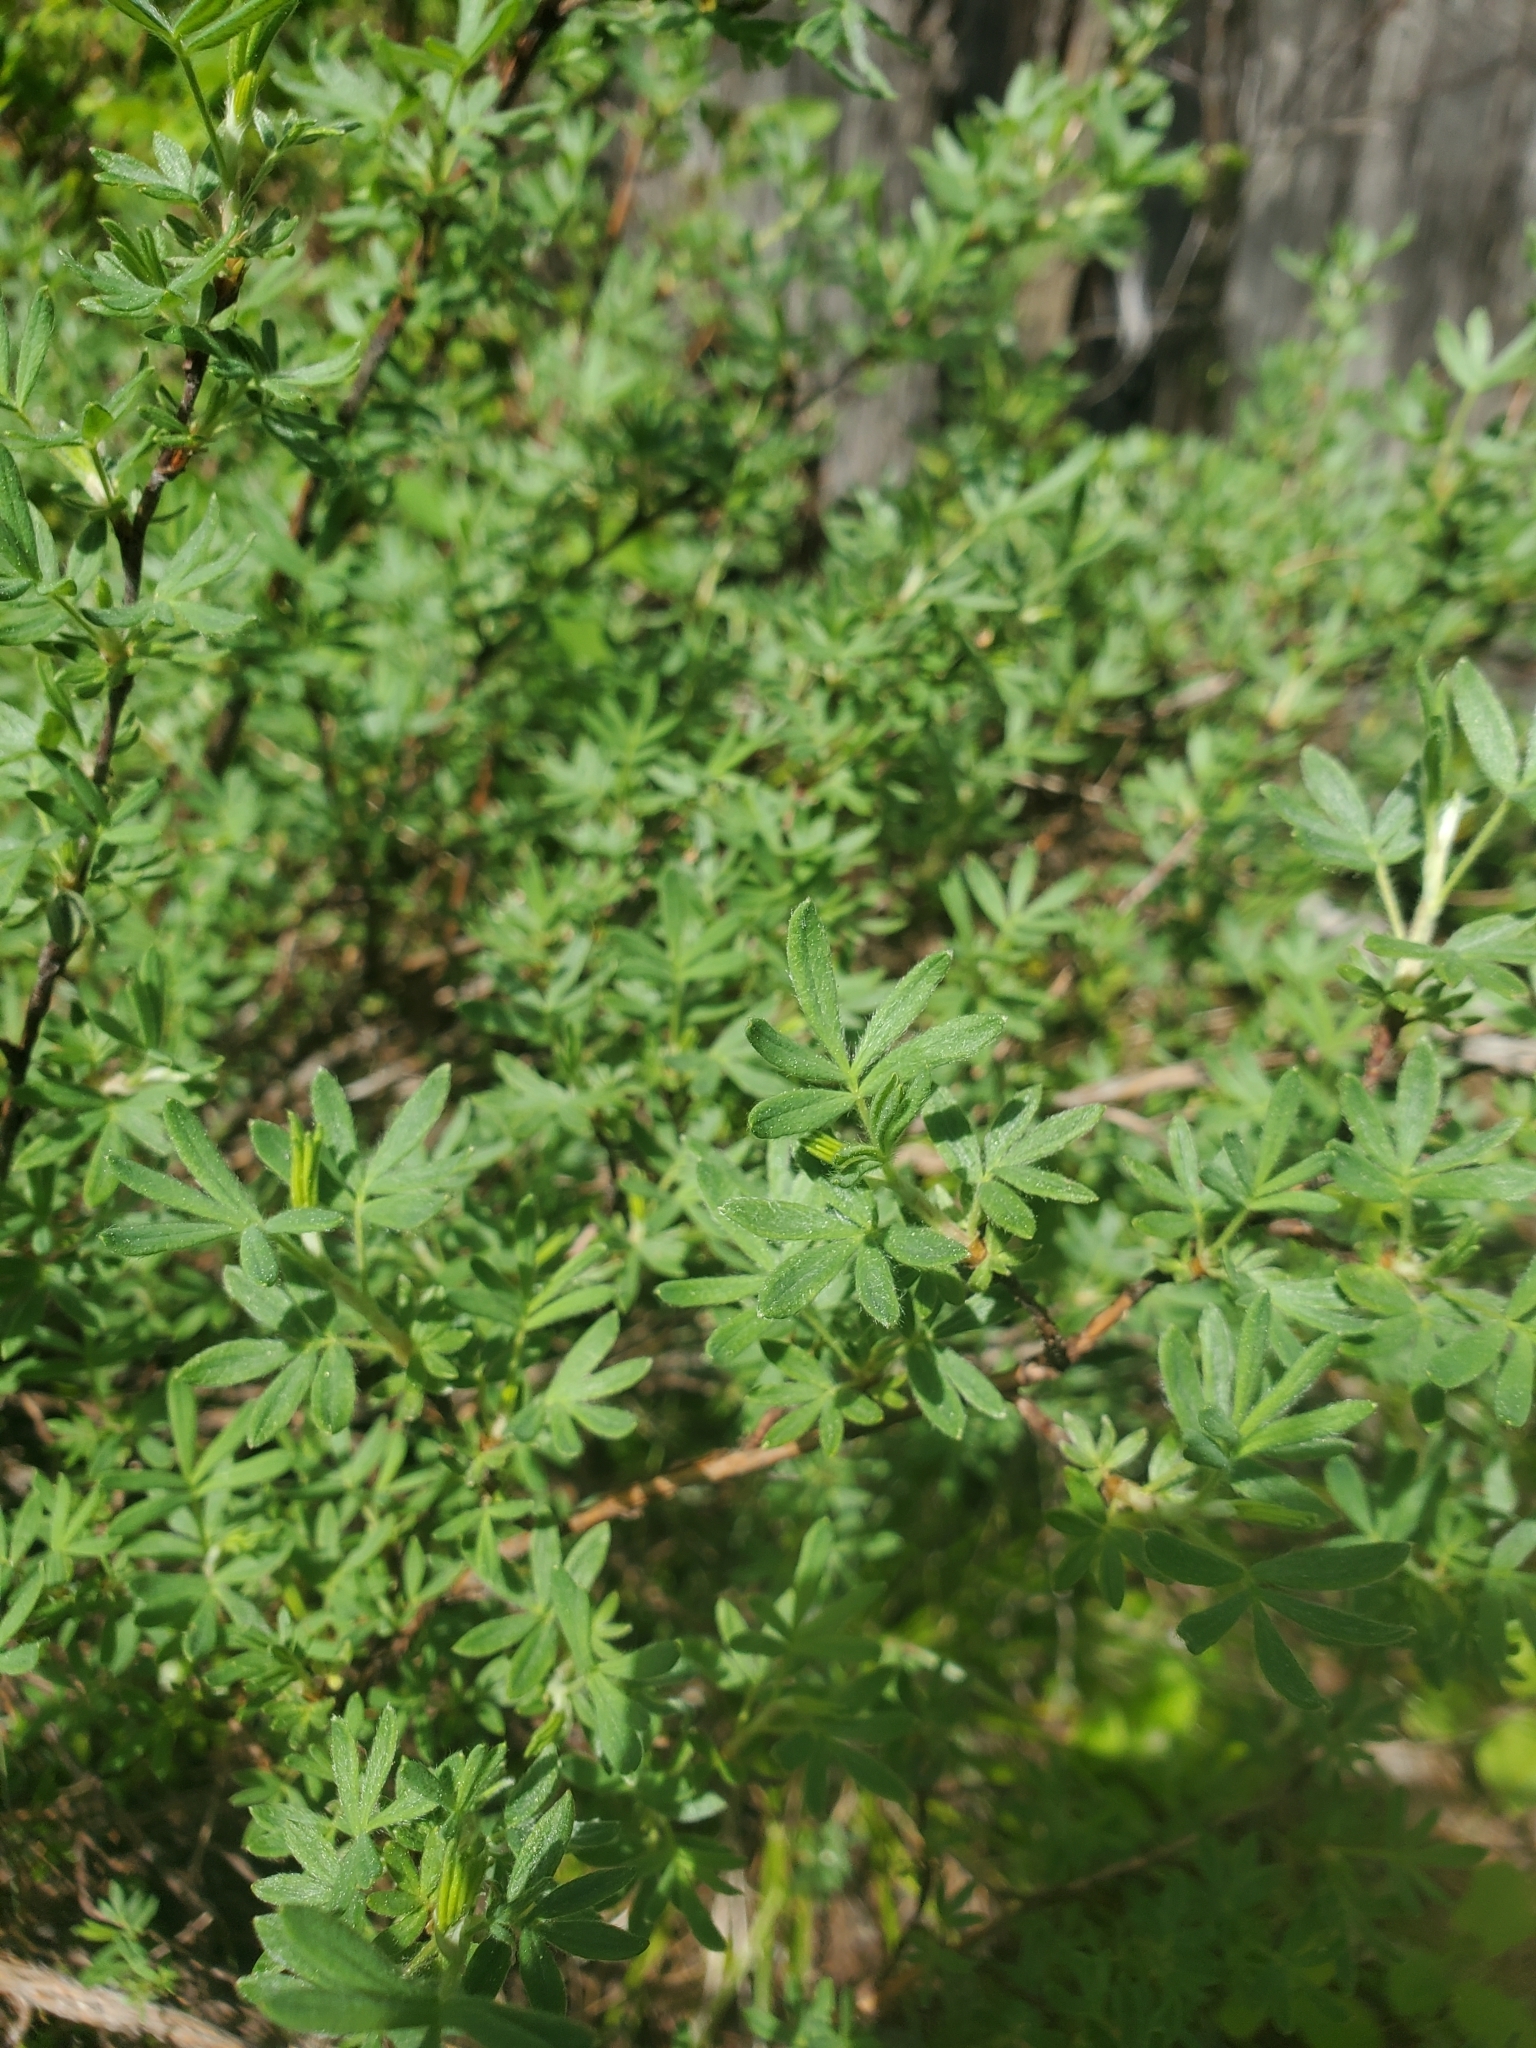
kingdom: Plantae
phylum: Tracheophyta
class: Magnoliopsida
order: Rosales
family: Rosaceae
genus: Dasiphora
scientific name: Dasiphora fruticosa
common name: Shrubby cinquefoil
